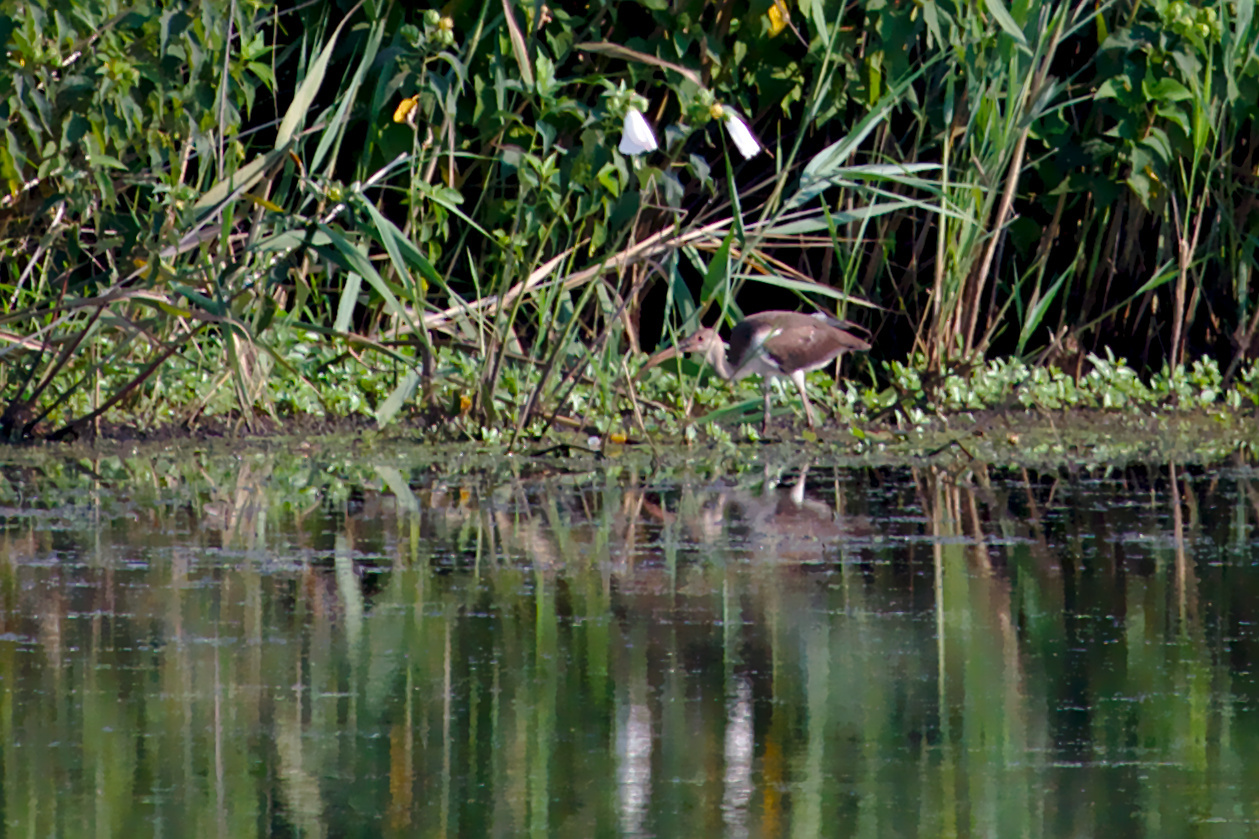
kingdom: Animalia
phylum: Chordata
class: Aves
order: Pelecaniformes
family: Threskiornithidae
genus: Eudocimus
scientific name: Eudocimus albus
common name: White ibis
